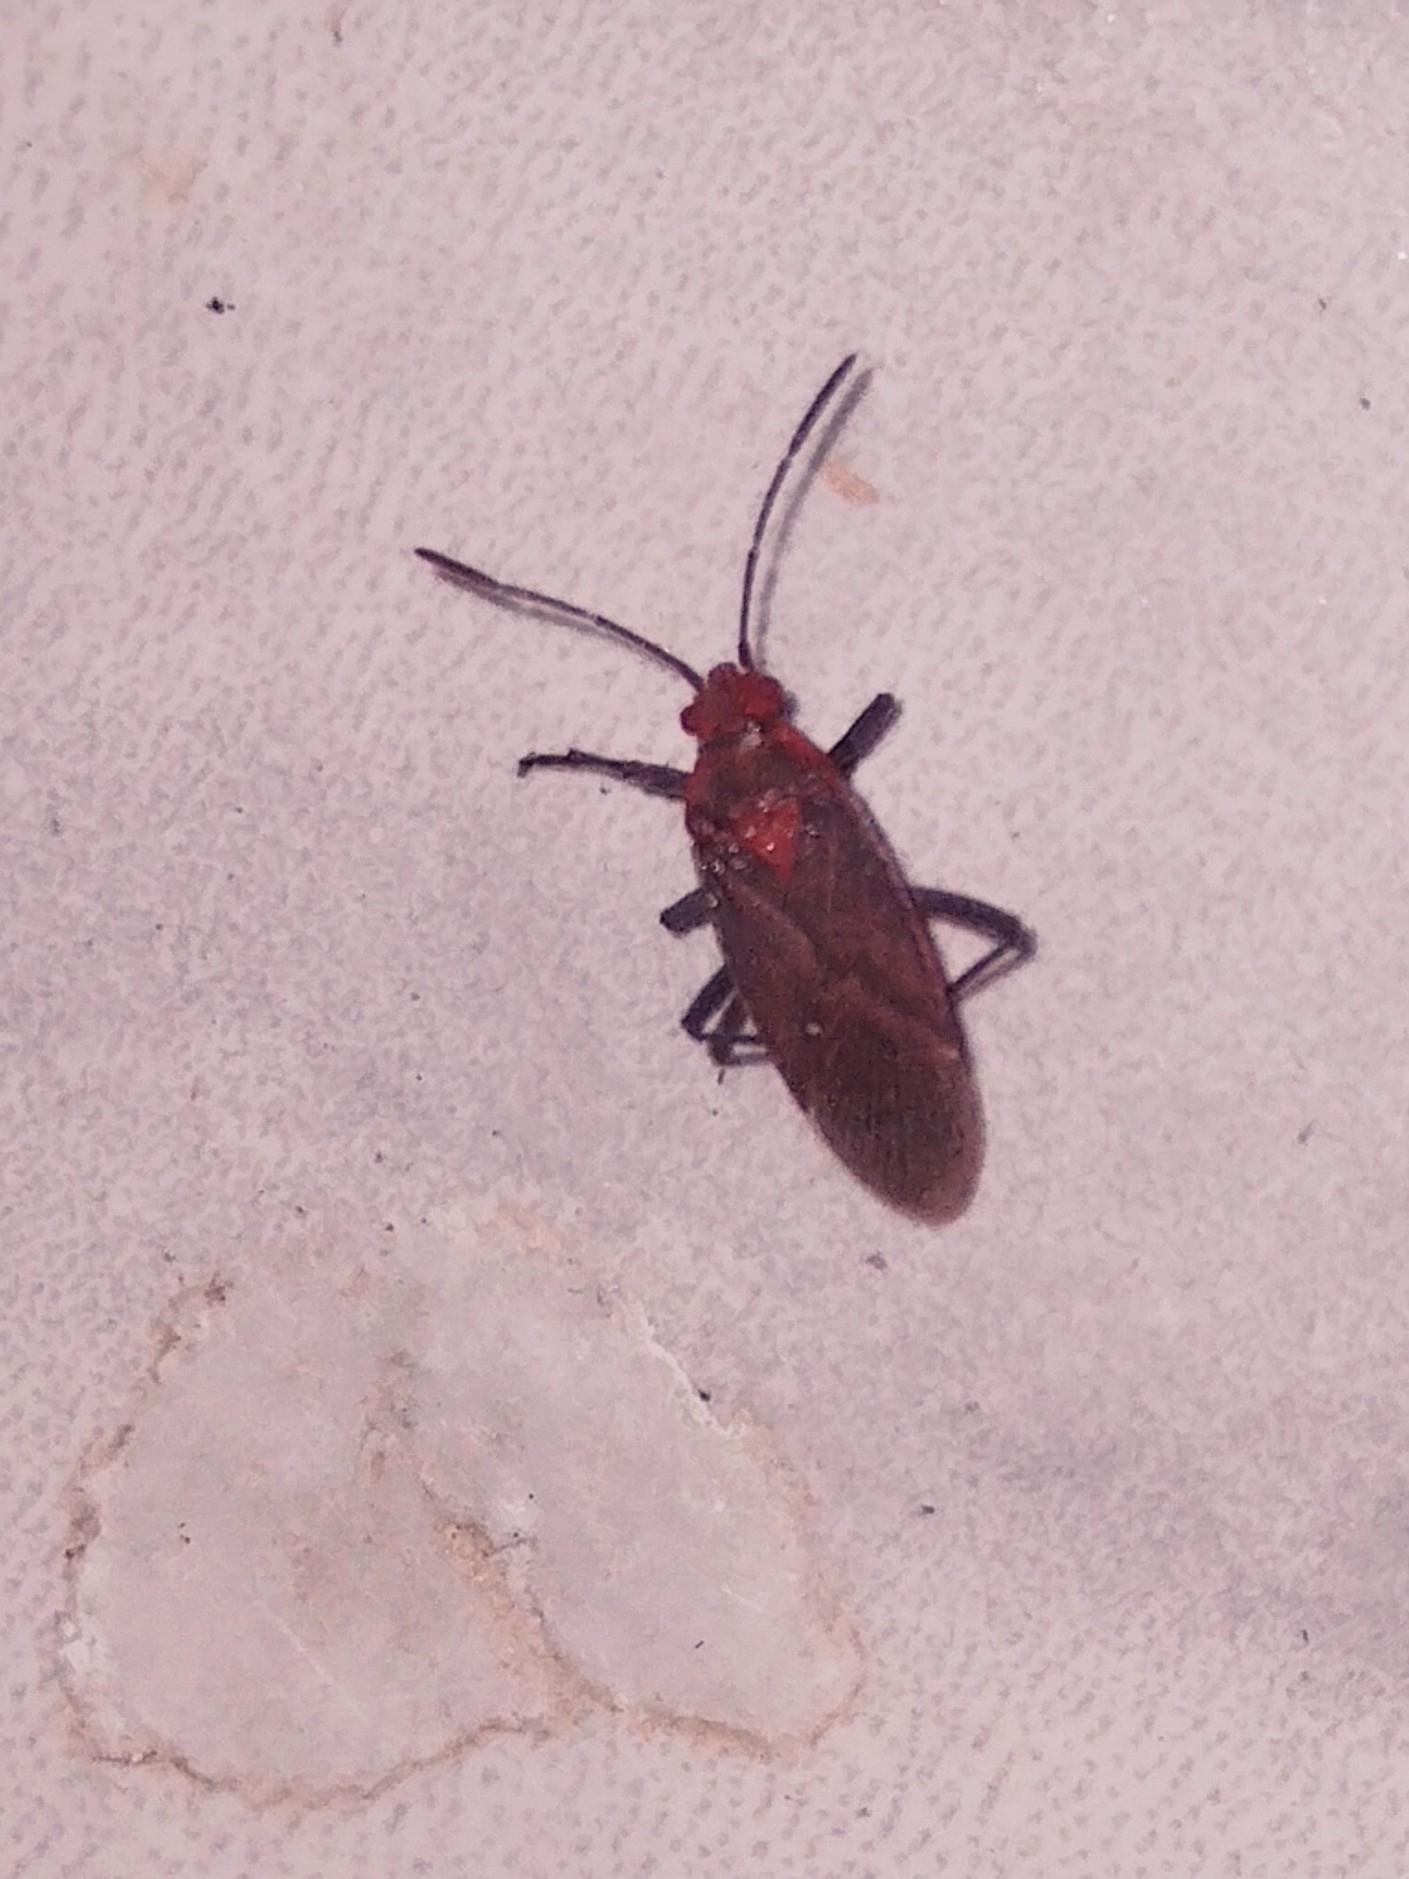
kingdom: Animalia
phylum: Arthropoda
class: Insecta
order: Hemiptera
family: Rhopalidae
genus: Jadera
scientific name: Jadera sanguinolenta
